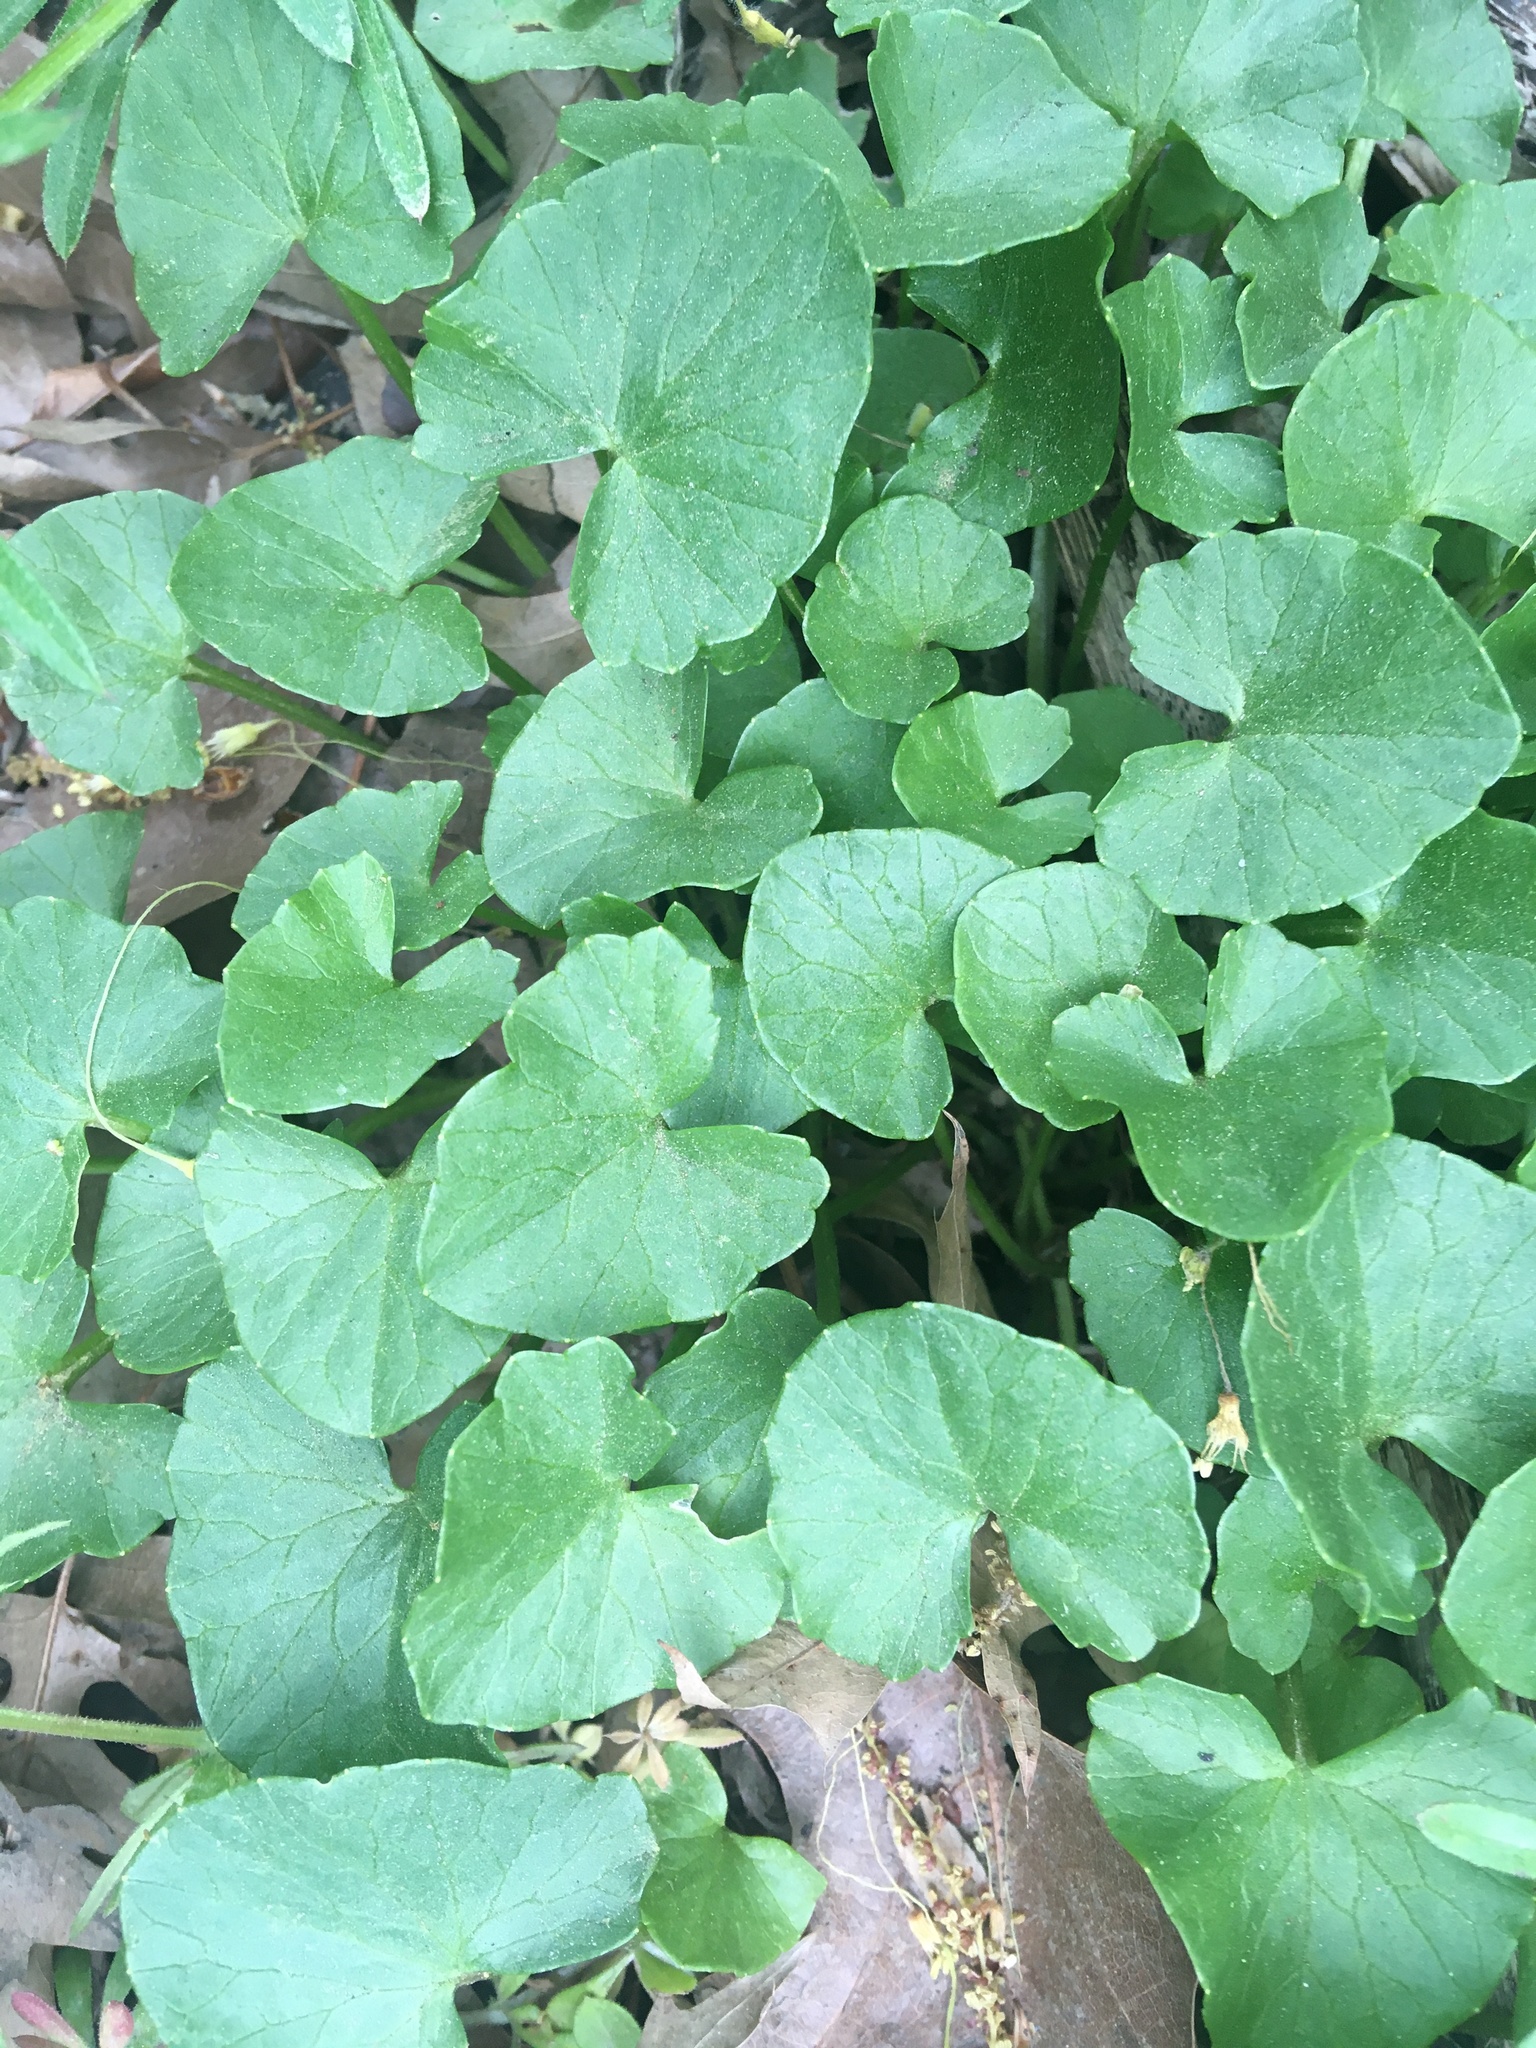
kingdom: Plantae
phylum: Tracheophyta
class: Magnoliopsida
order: Ranunculales
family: Ranunculaceae
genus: Ficaria
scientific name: Ficaria verna
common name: Lesser celandine
